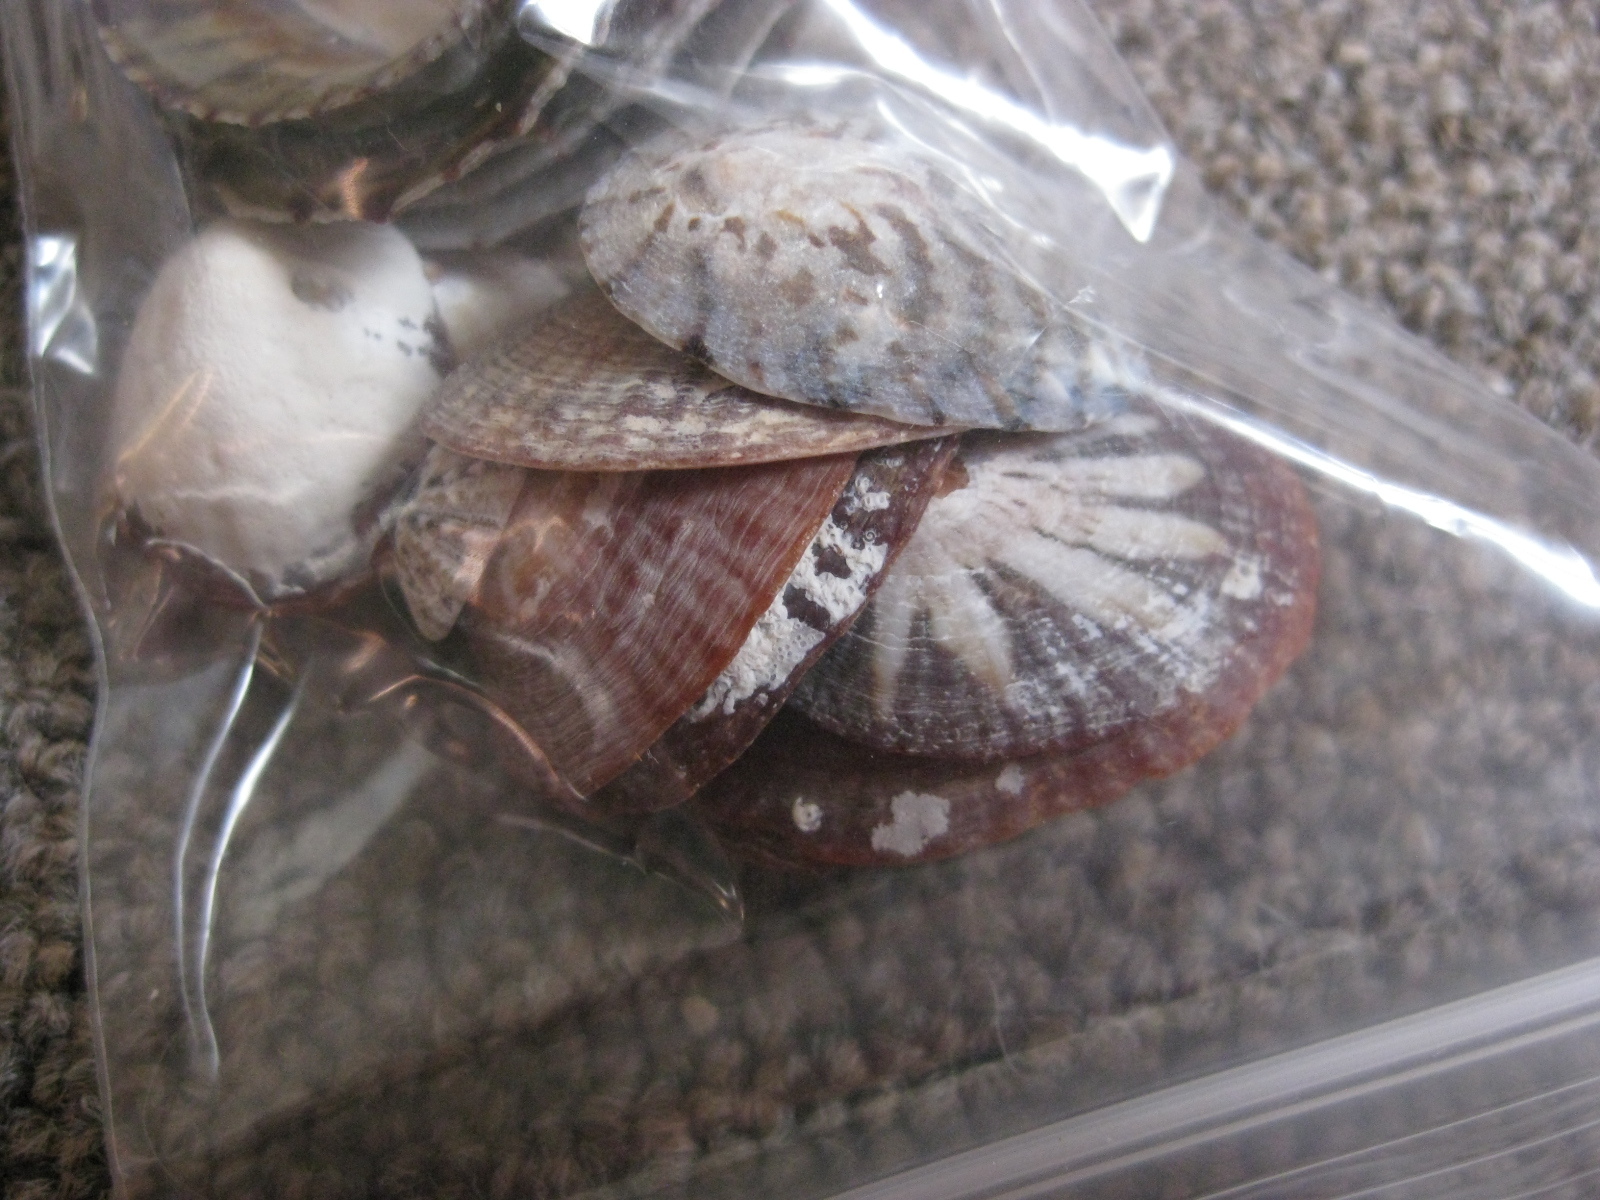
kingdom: Animalia
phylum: Mollusca
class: Gastropoda
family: Nacellidae
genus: Cellana
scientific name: Cellana stellifera
